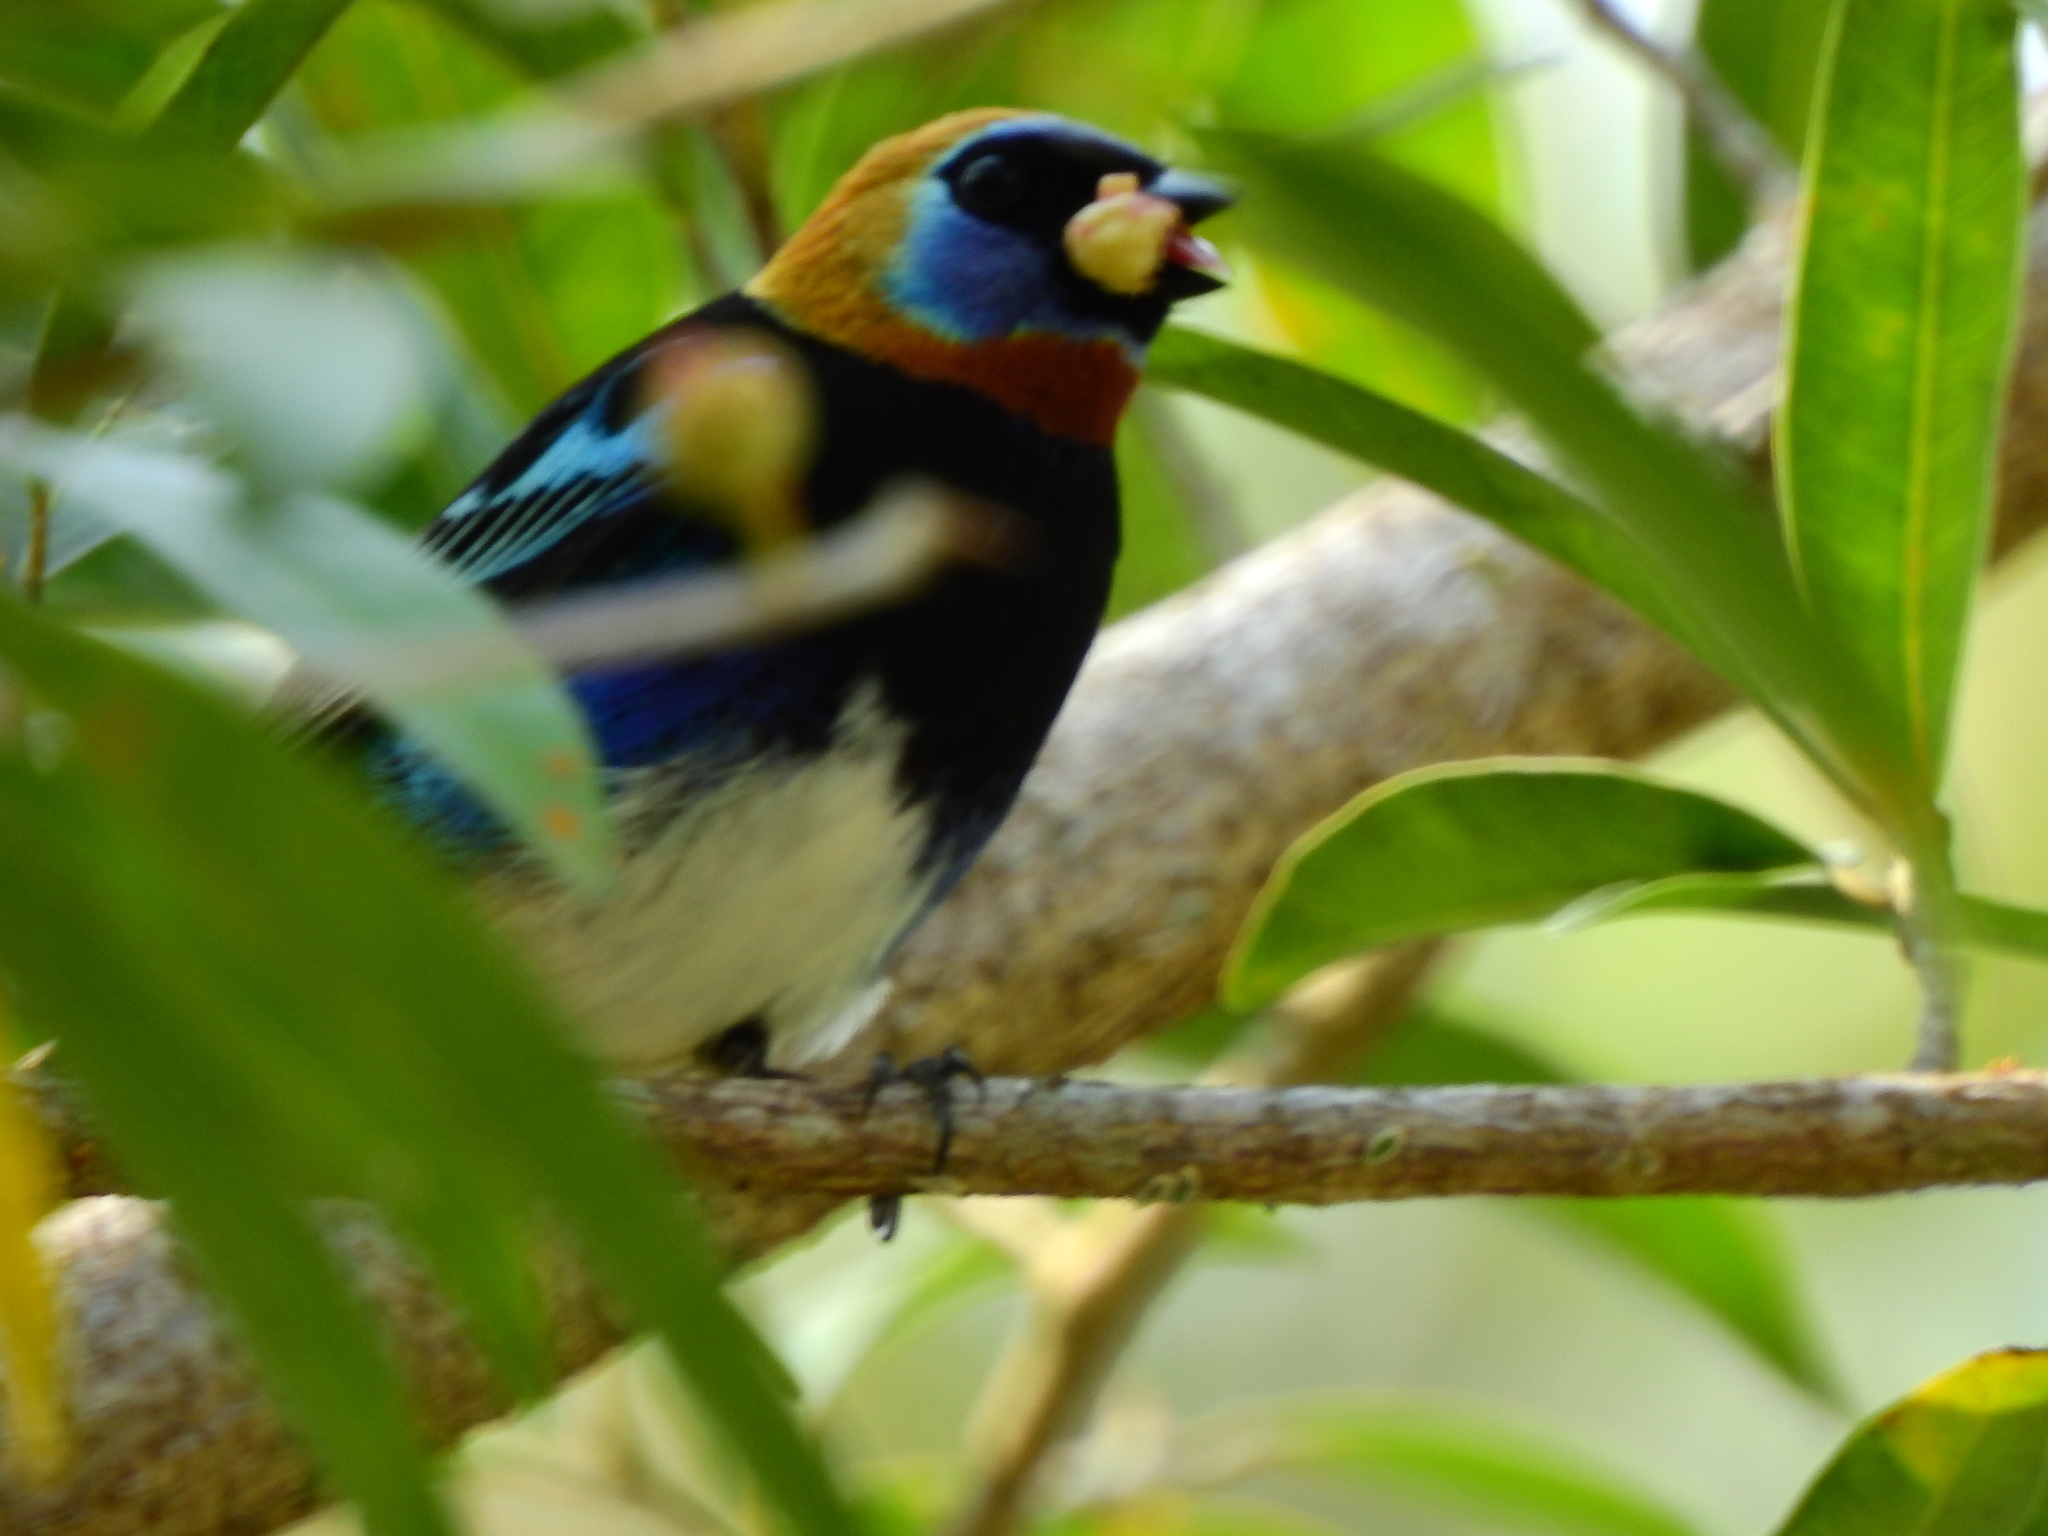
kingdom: Animalia
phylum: Chordata
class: Aves
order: Passeriformes
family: Thraupidae
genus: Stilpnia
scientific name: Stilpnia larvata
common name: Golden-hooded tanager
